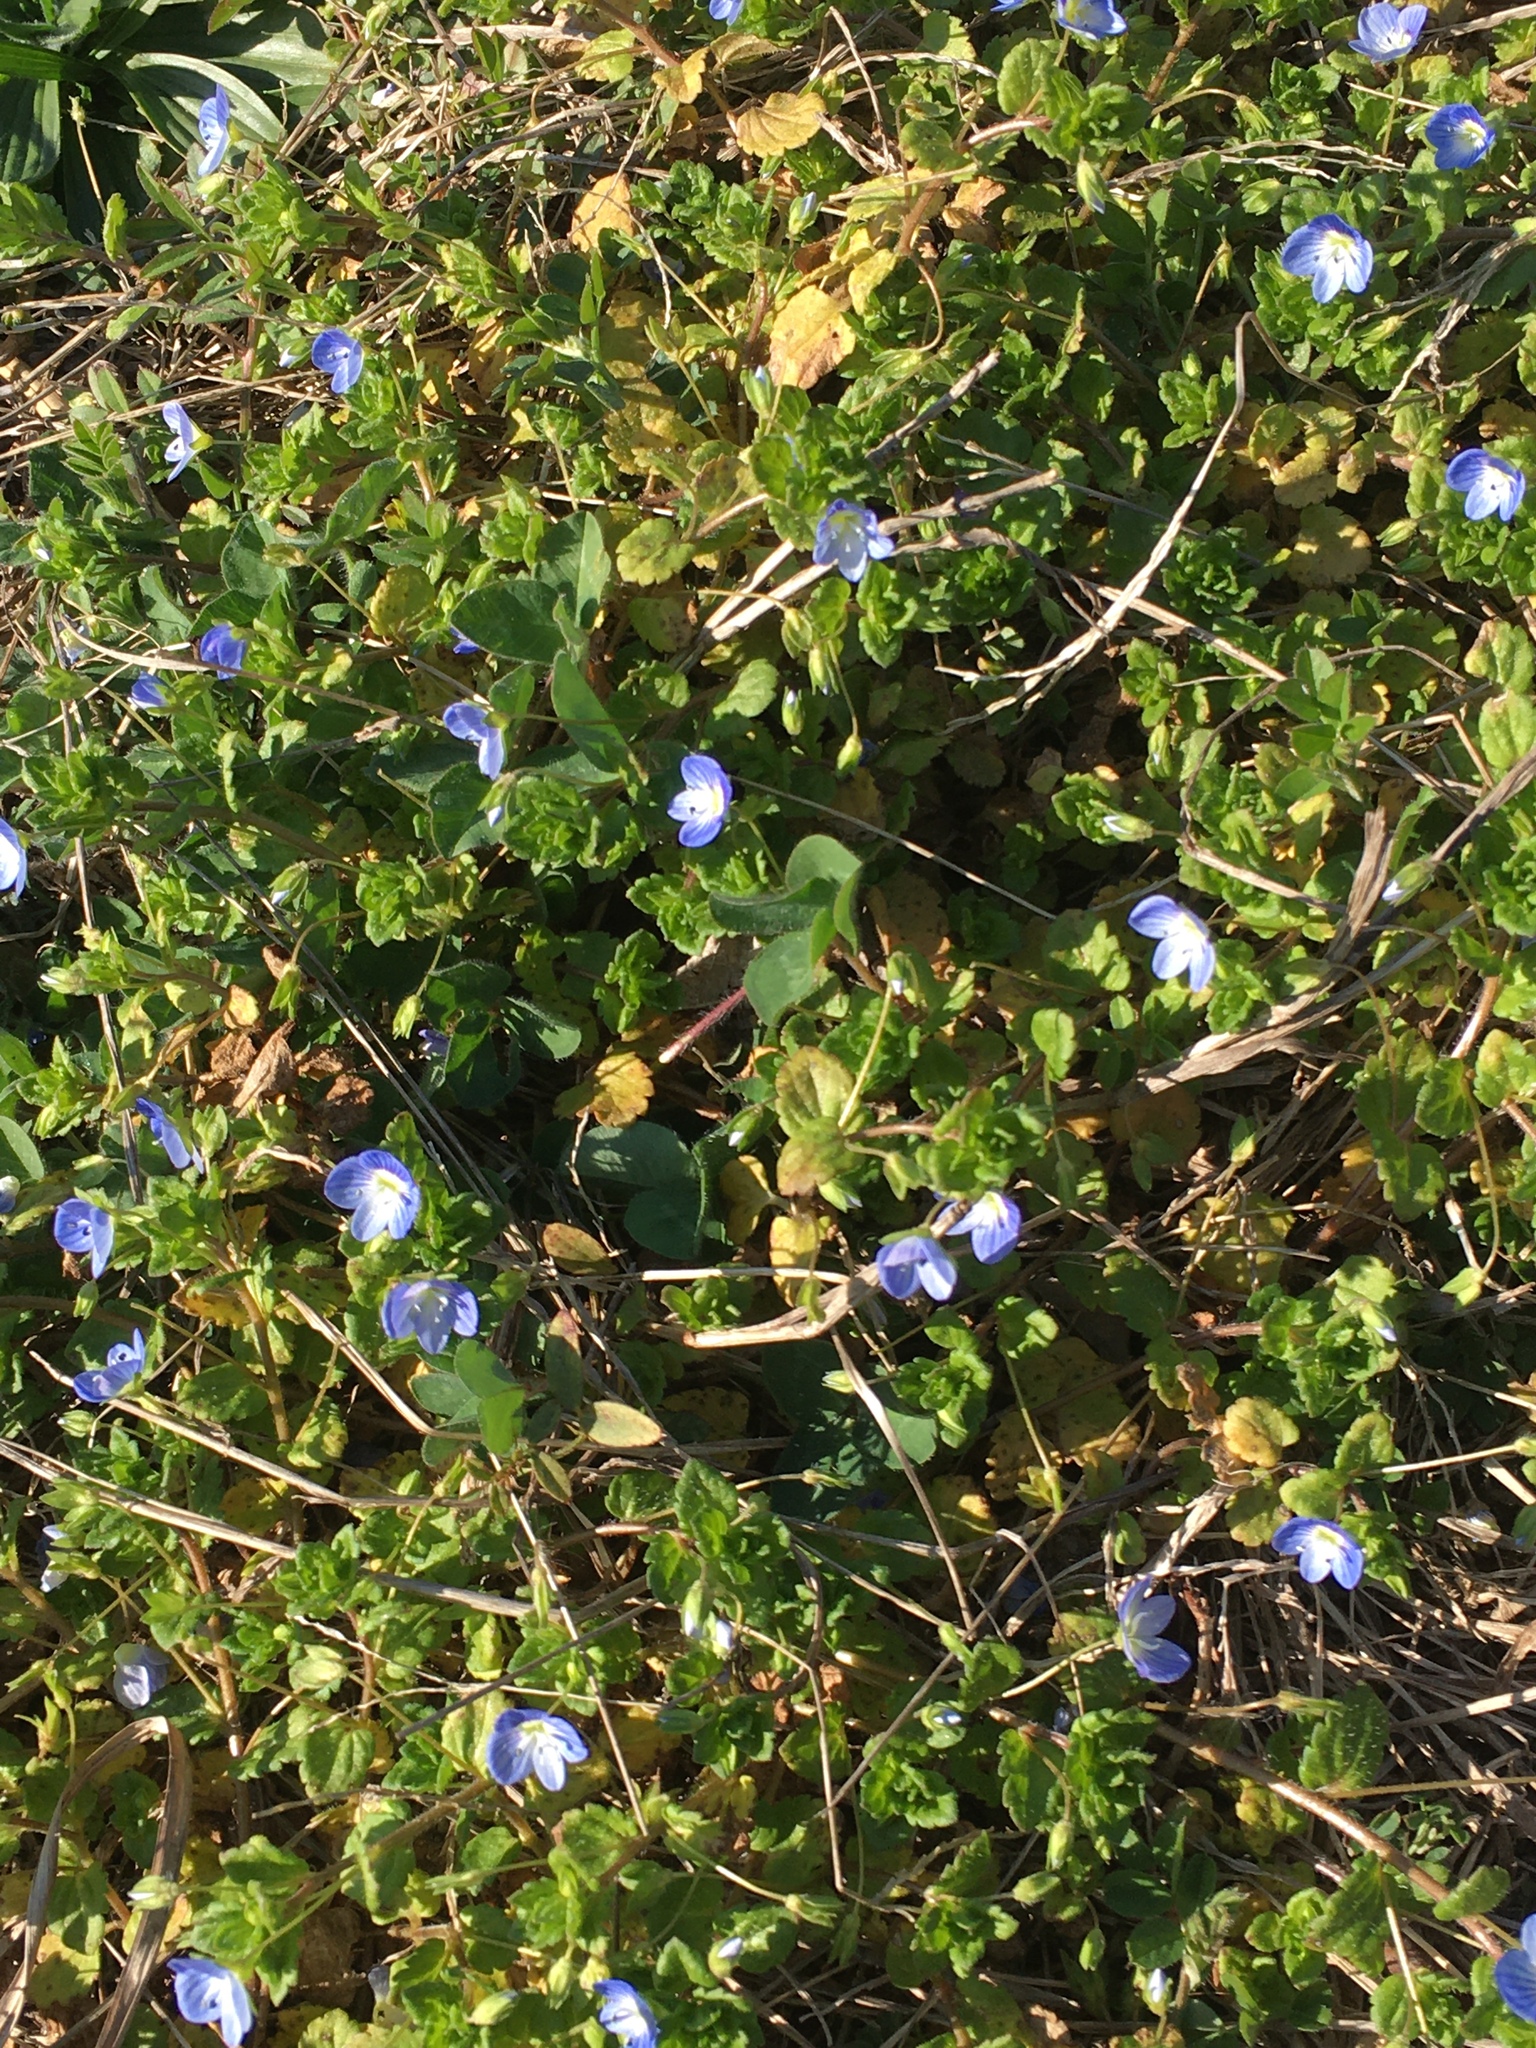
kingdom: Plantae
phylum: Tracheophyta
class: Magnoliopsida
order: Lamiales
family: Plantaginaceae
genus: Veronica
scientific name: Veronica persica
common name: Common field-speedwell
